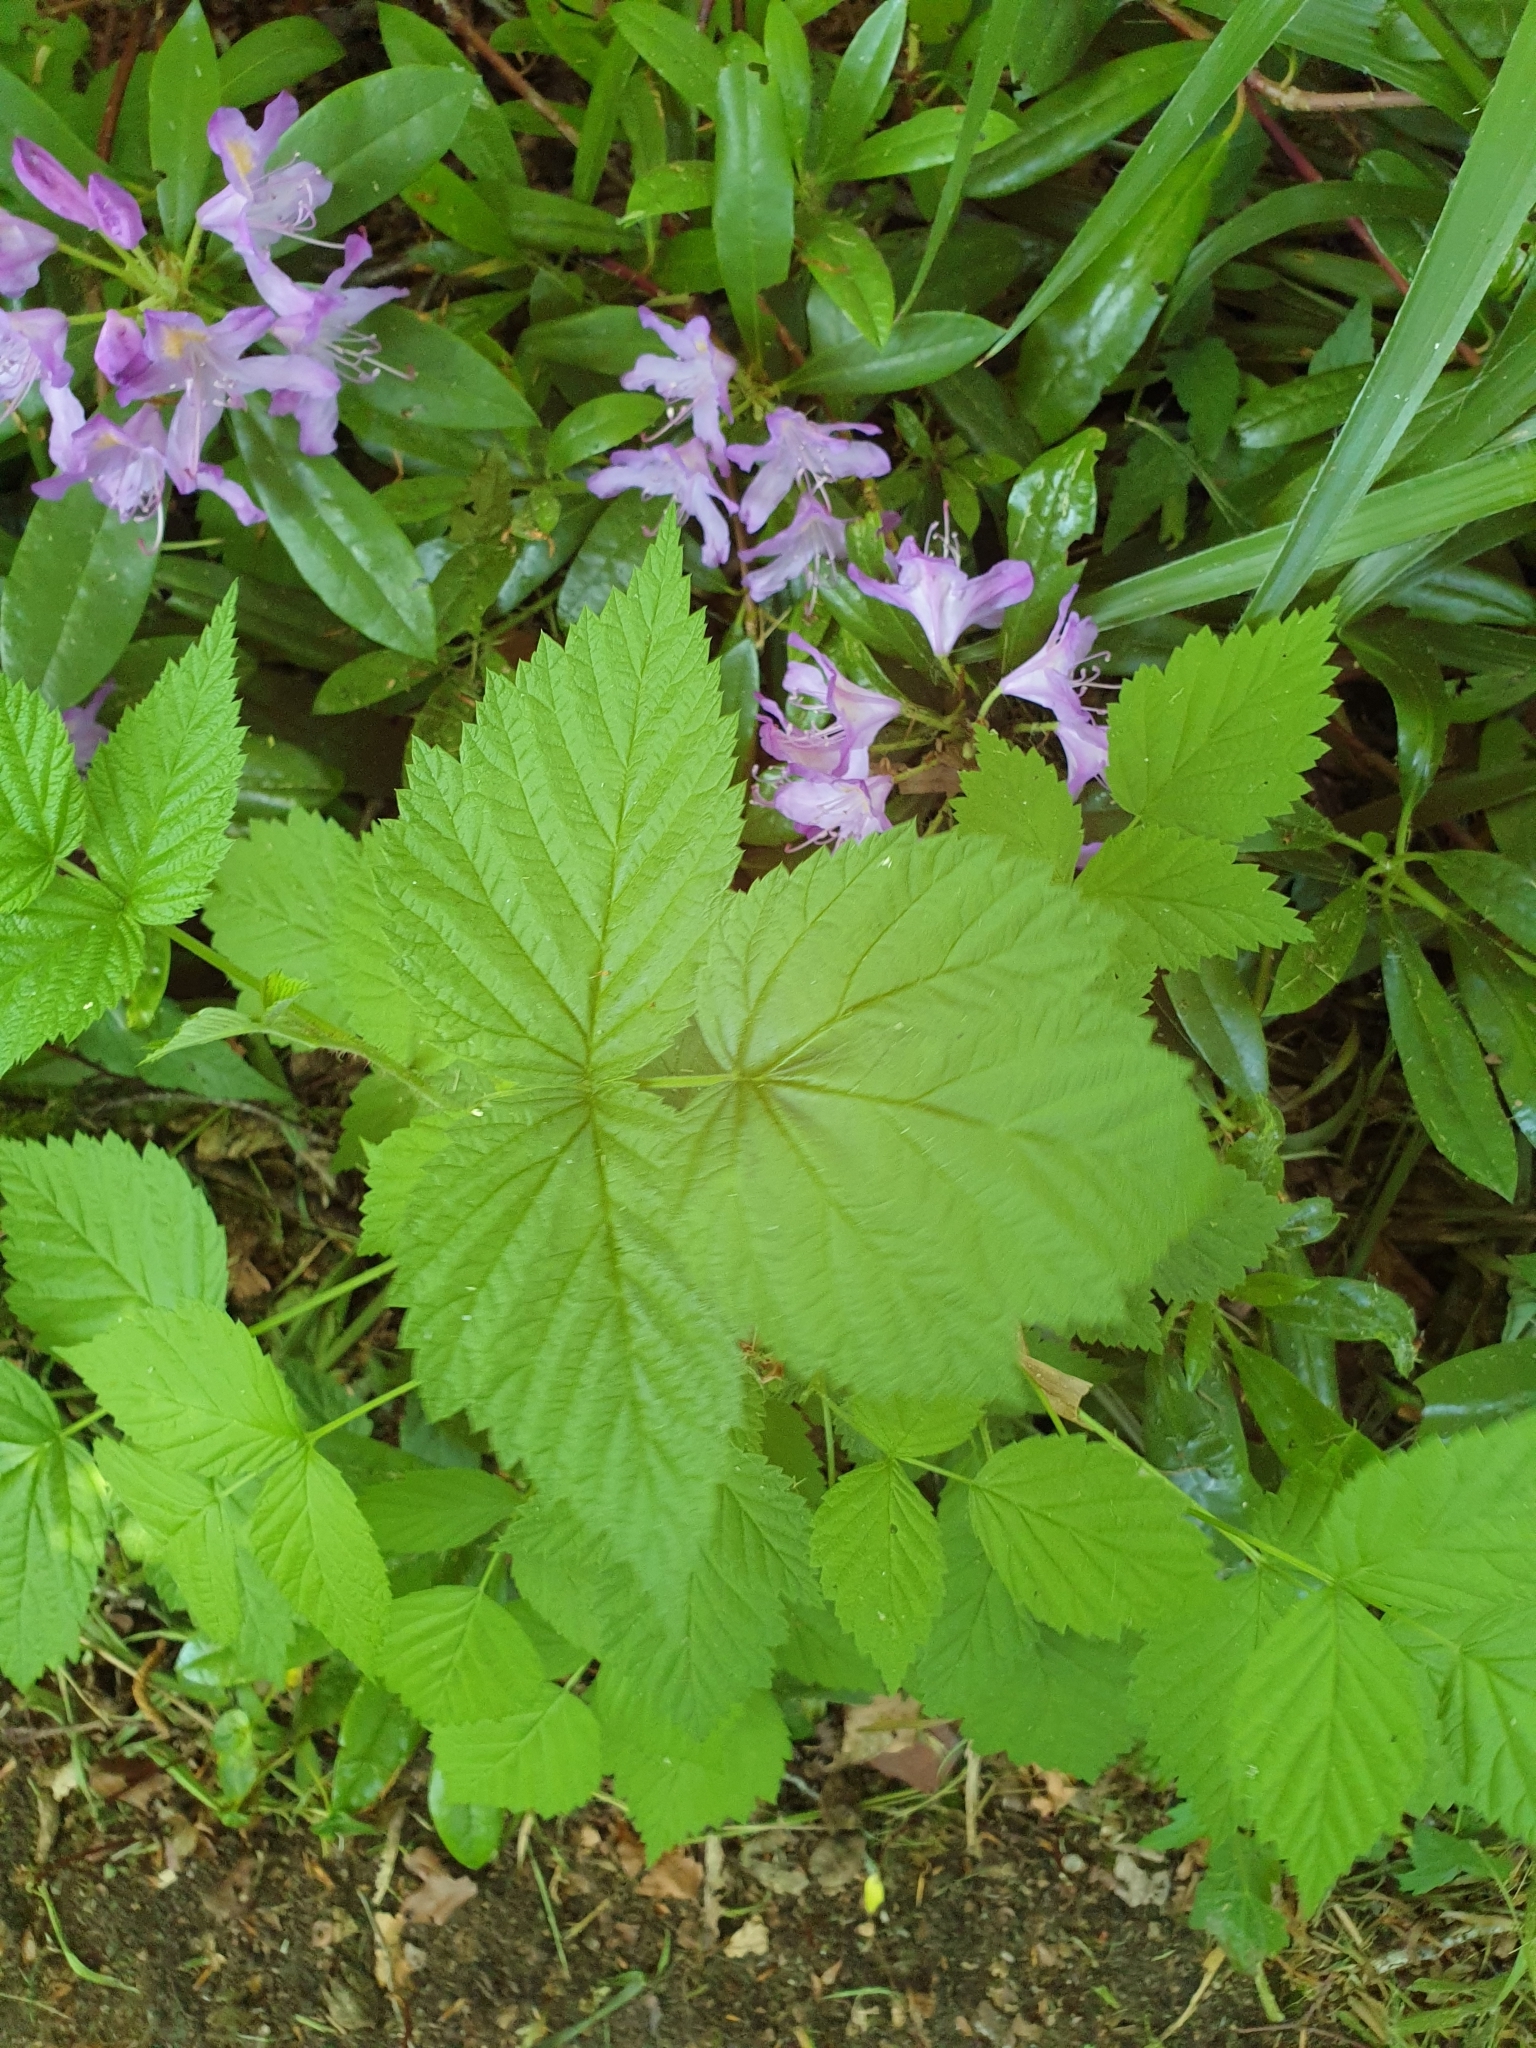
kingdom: Plantae
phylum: Tracheophyta
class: Magnoliopsida
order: Rosales
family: Rosaceae
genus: Rubus
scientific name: Rubus idaeus
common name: Raspberry
